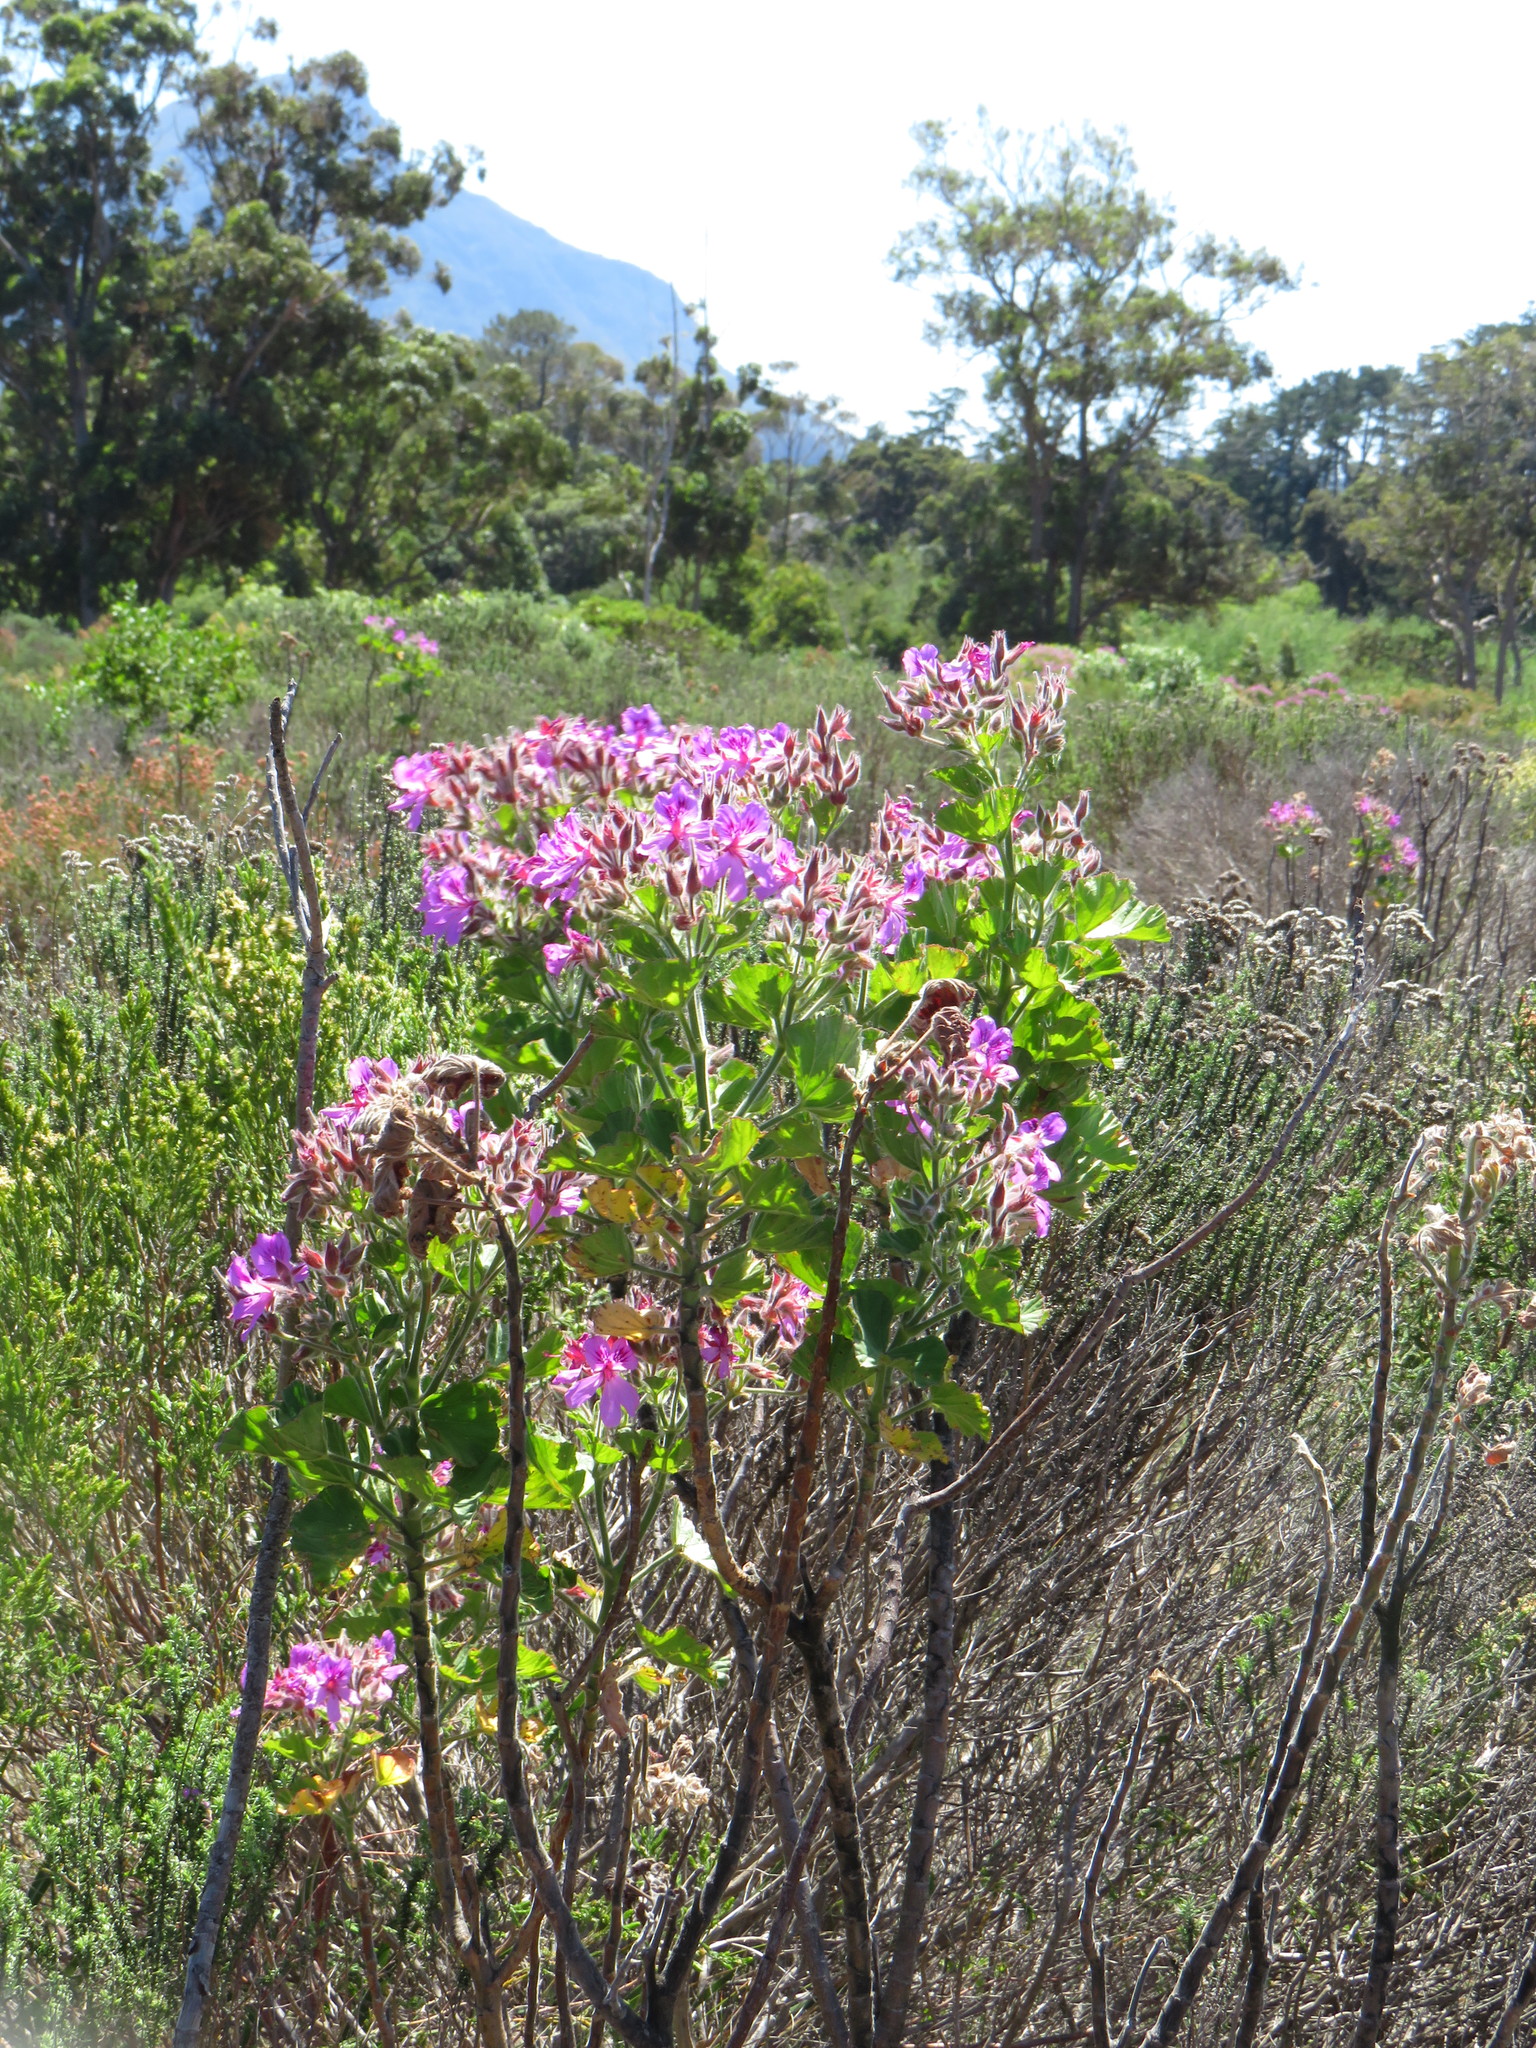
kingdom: Plantae
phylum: Tracheophyta
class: Magnoliopsida
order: Geraniales
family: Geraniaceae
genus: Pelargonium
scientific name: Pelargonium cucullatum
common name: Tree pelargonium
